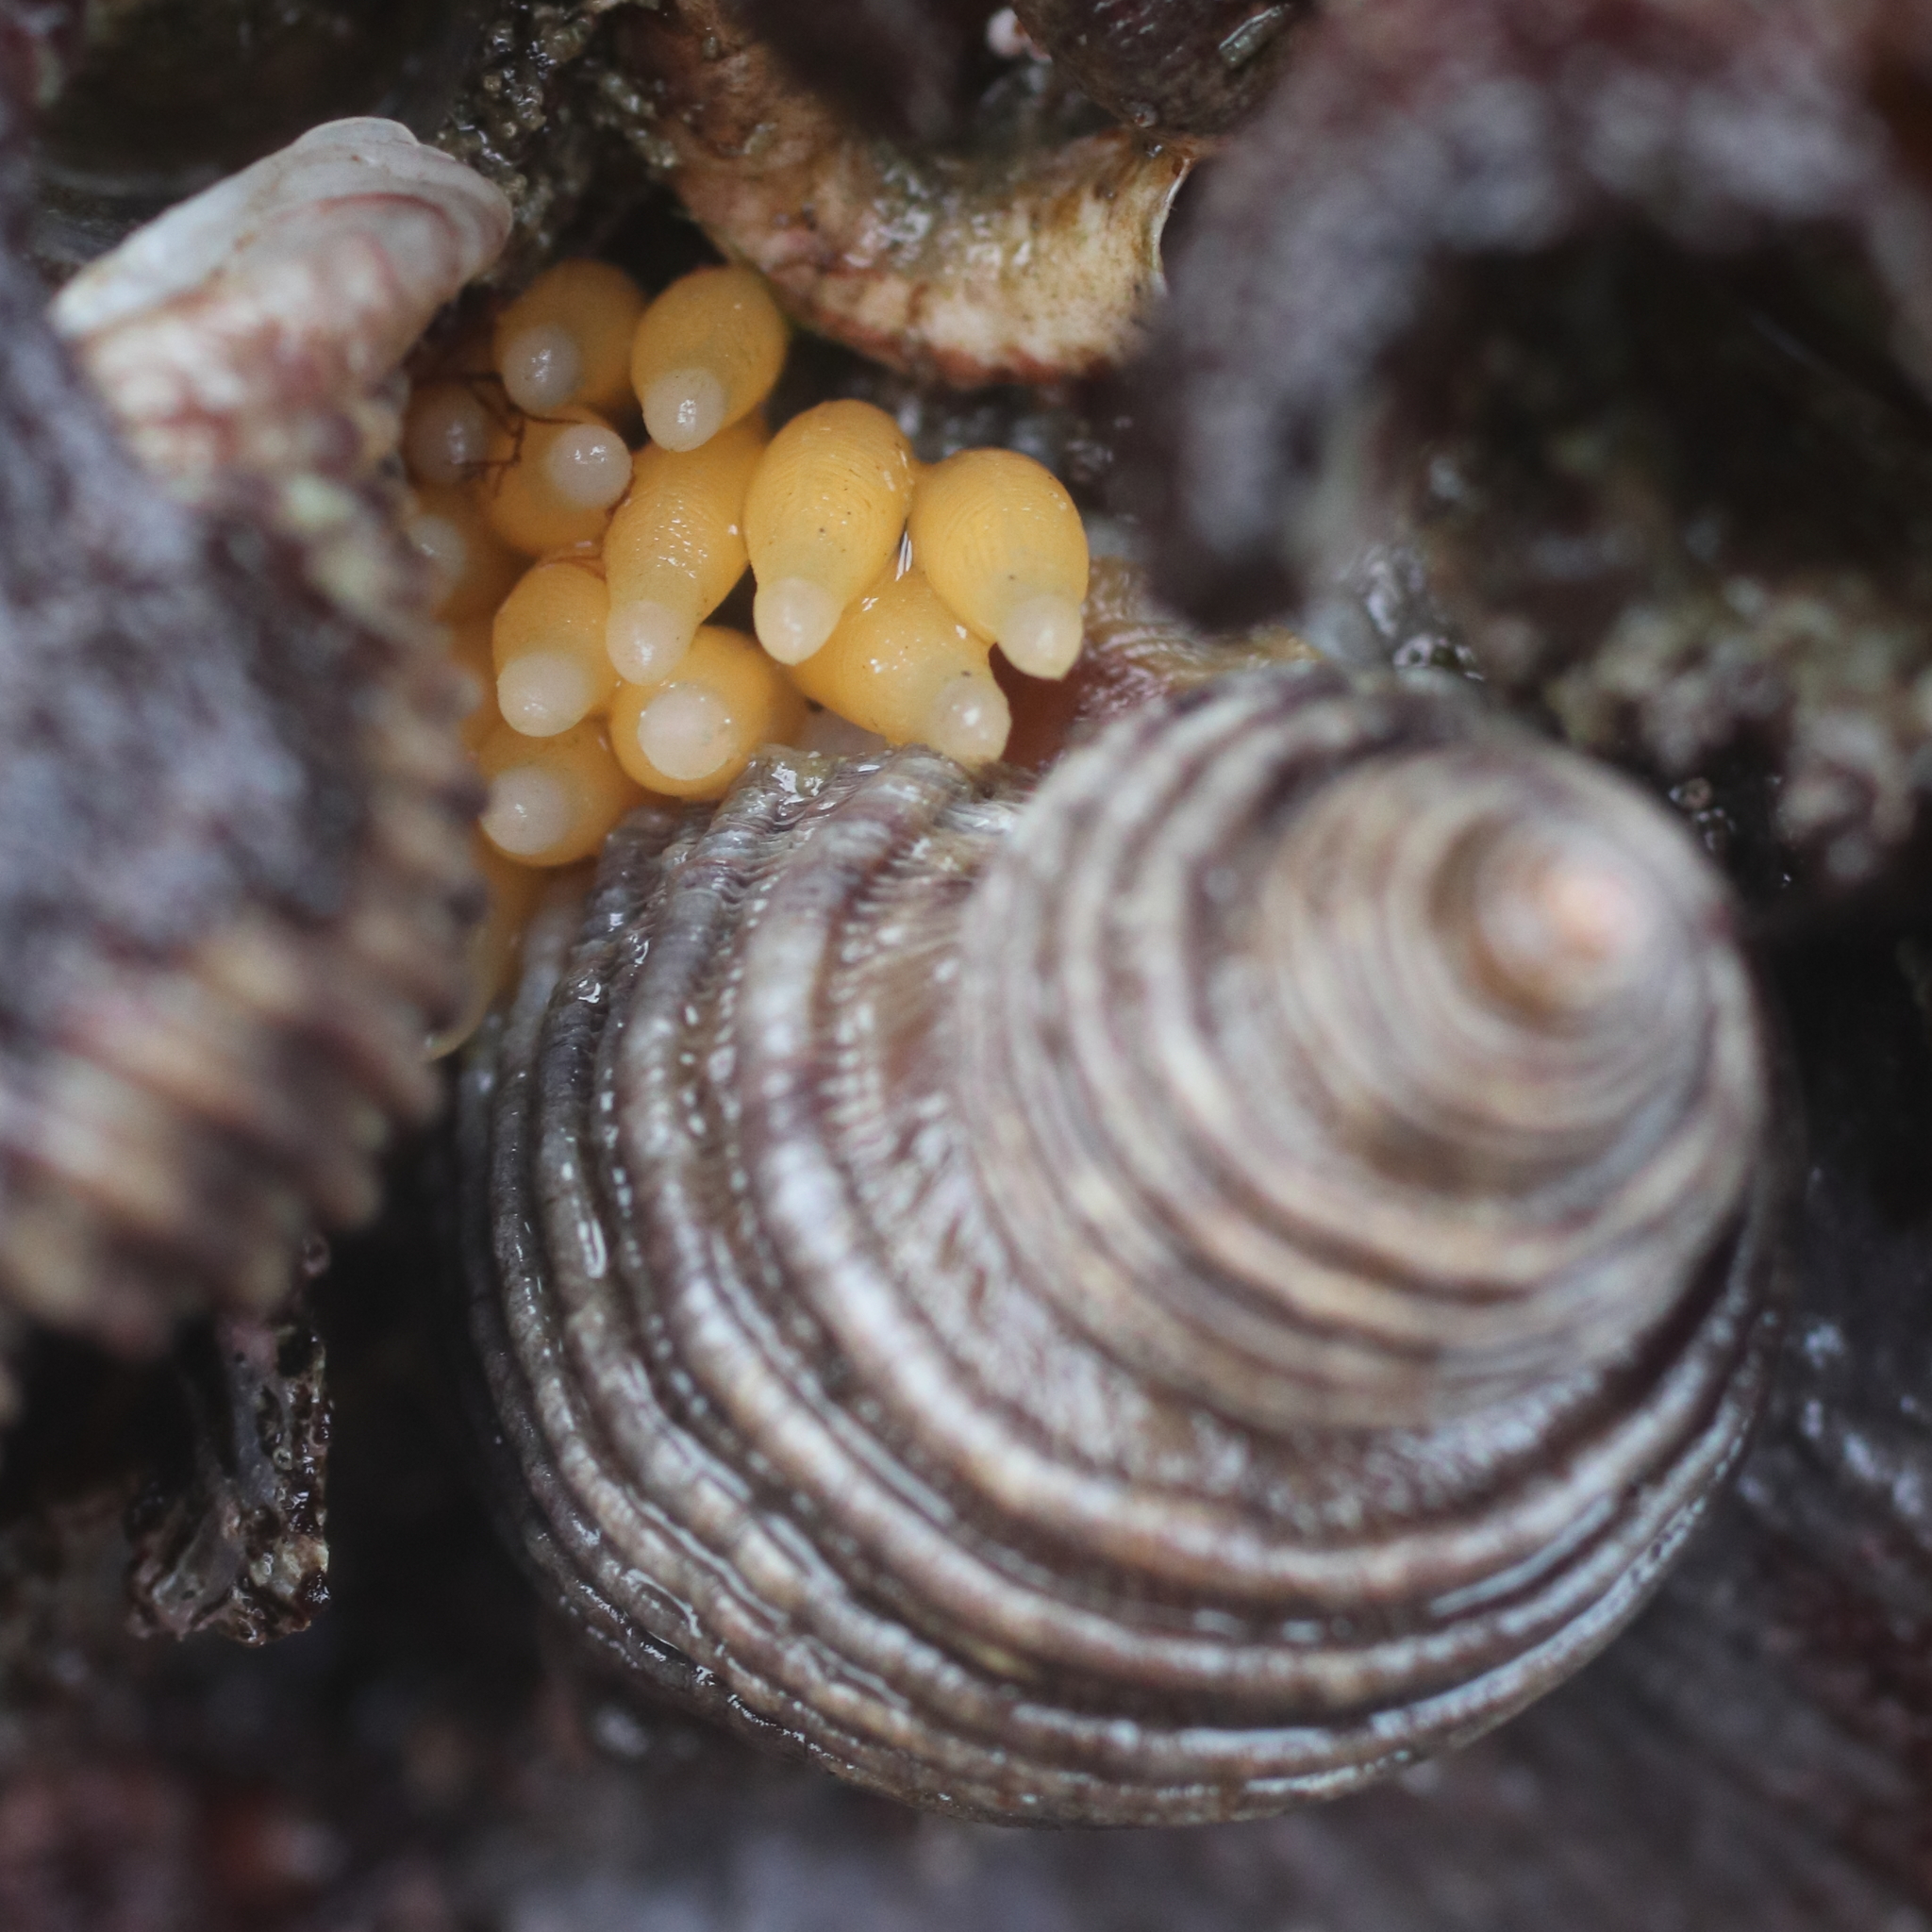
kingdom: Animalia
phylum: Mollusca
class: Gastropoda
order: Neogastropoda
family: Muricidae
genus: Nucella
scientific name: Nucella canaliculata
